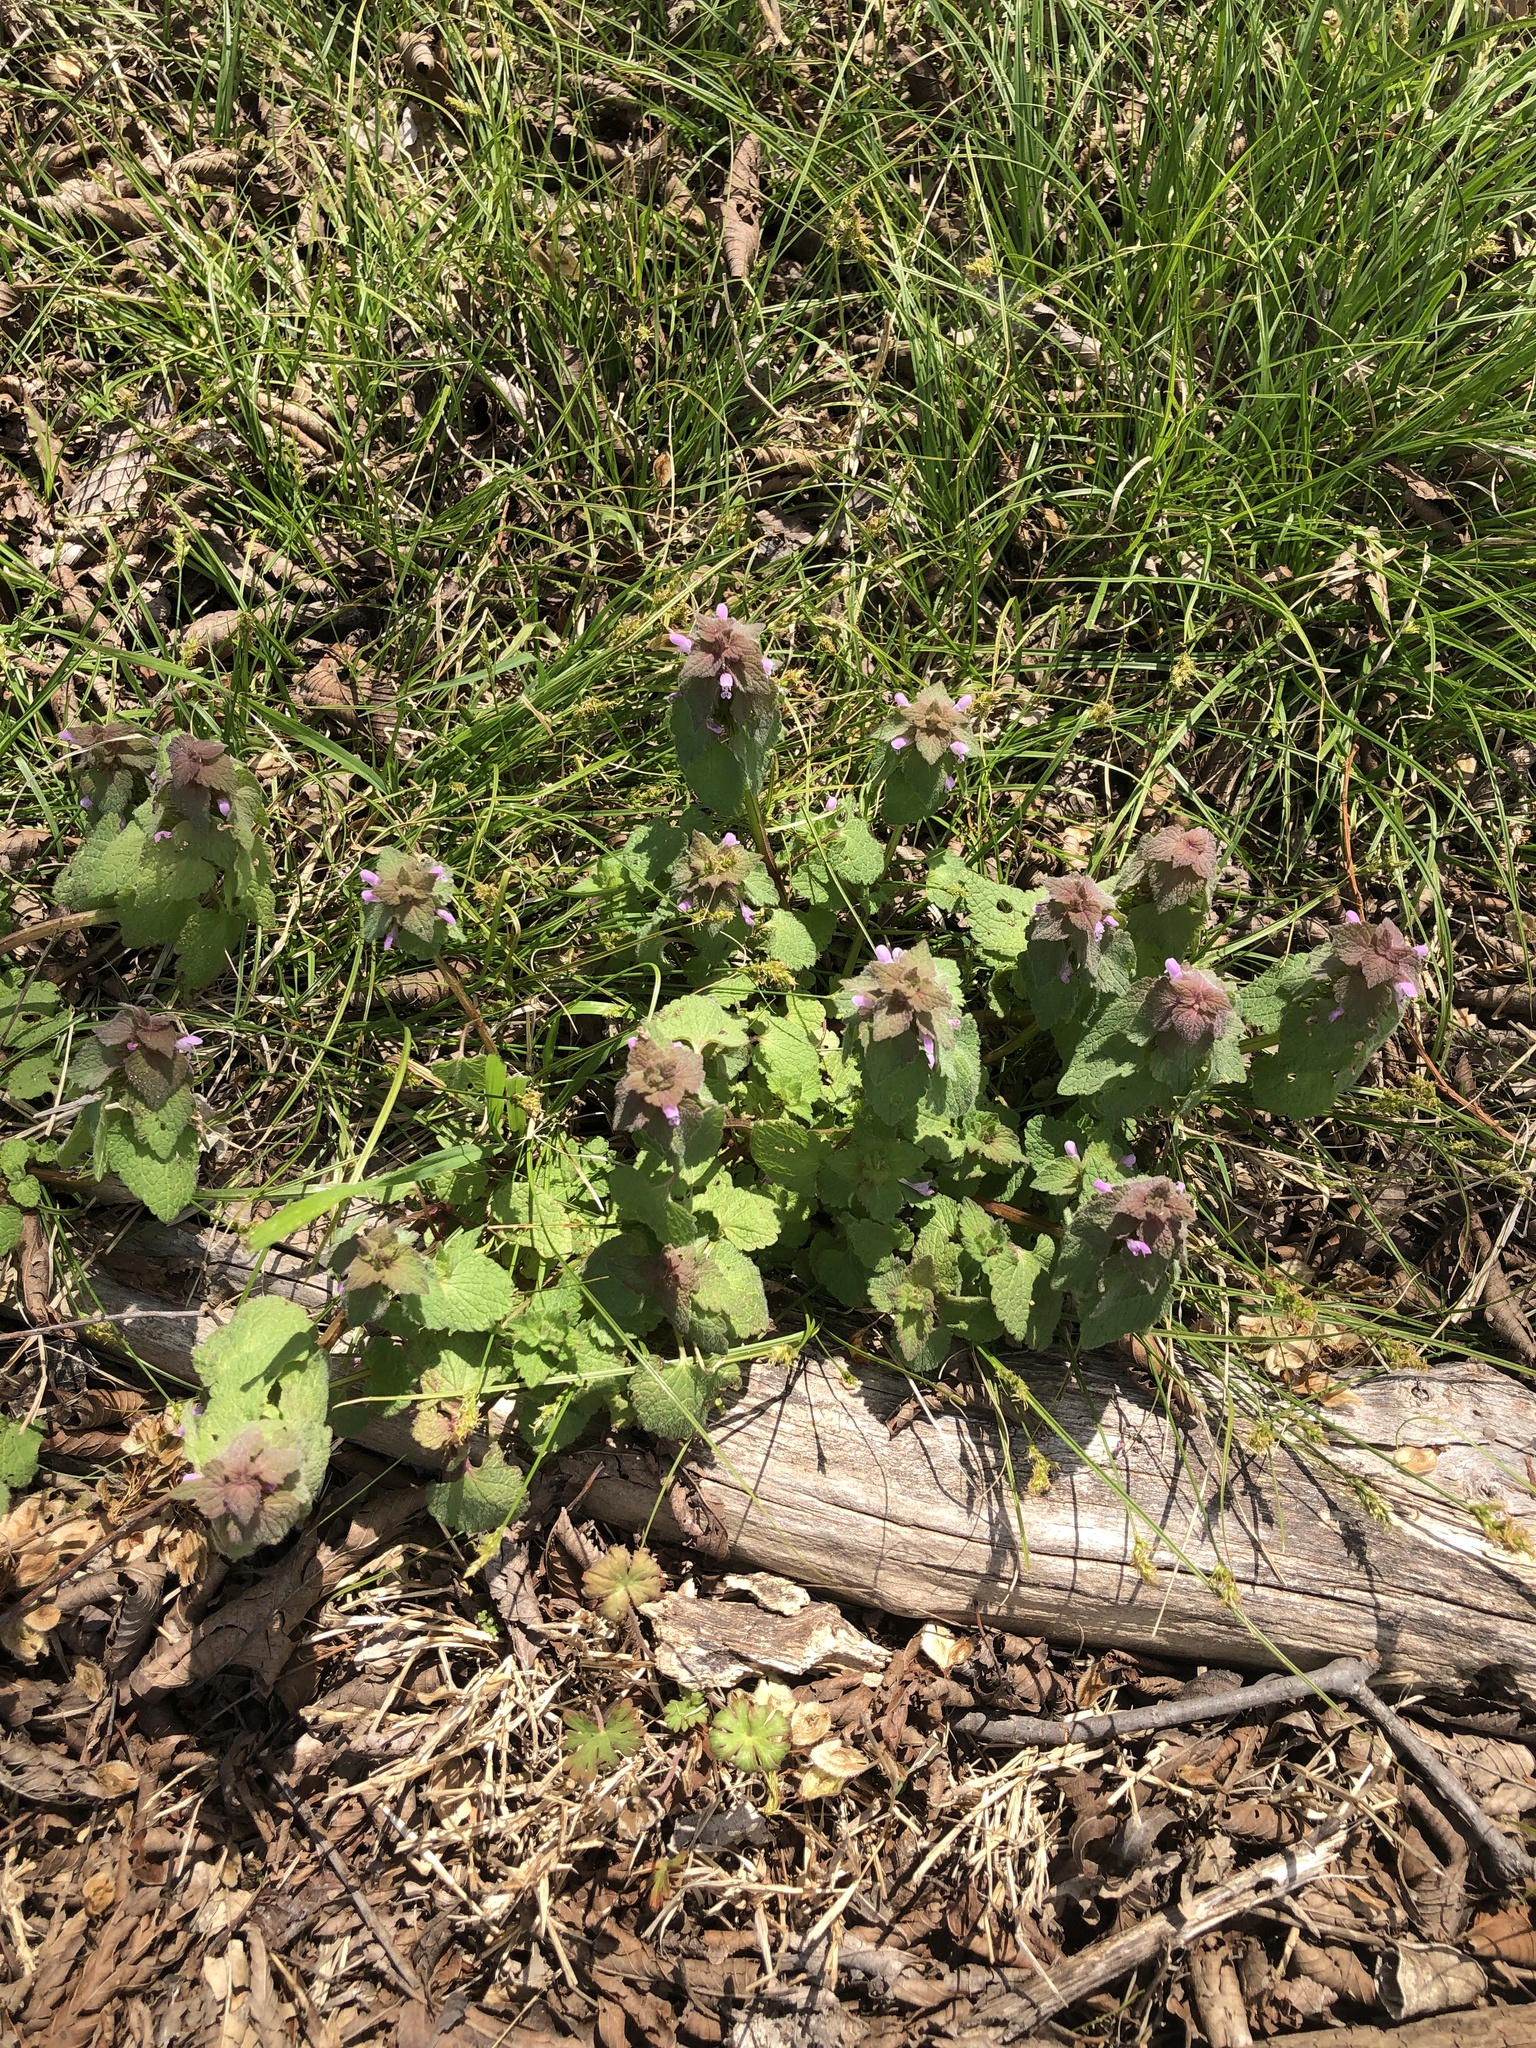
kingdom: Plantae
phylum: Tracheophyta
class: Magnoliopsida
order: Lamiales
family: Lamiaceae
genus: Lamium
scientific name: Lamium purpureum
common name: Red dead-nettle
